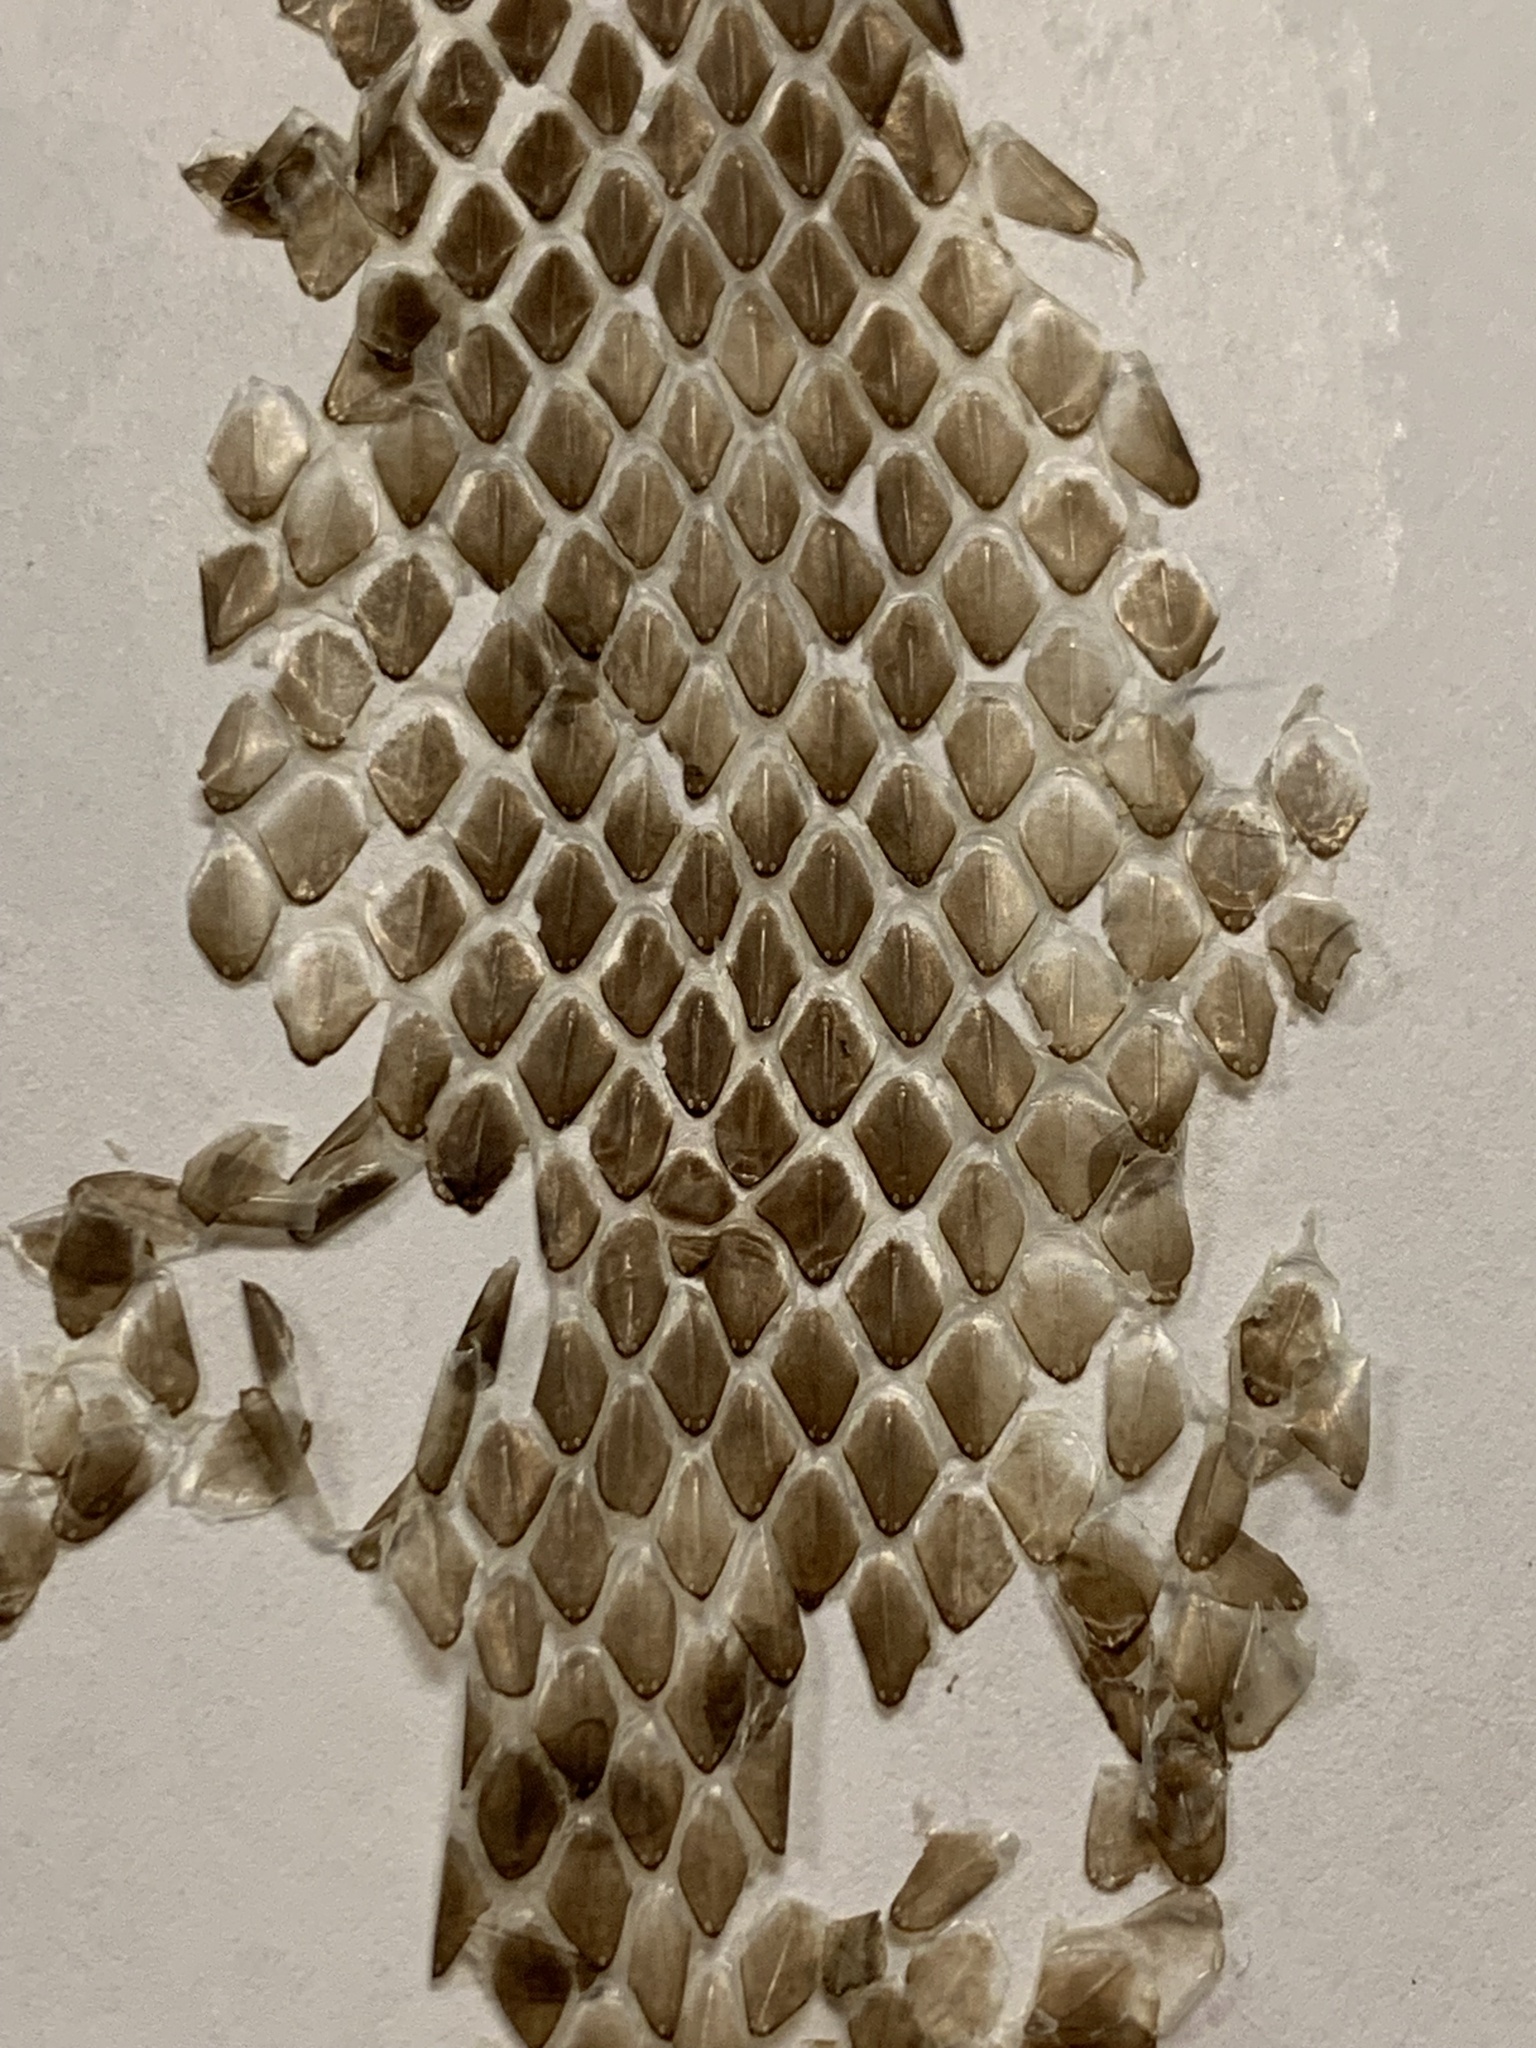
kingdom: Animalia
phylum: Chordata
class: Squamata
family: Colubridae
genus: Pantherophis
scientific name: Pantherophis obsoletus
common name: Black rat snake
